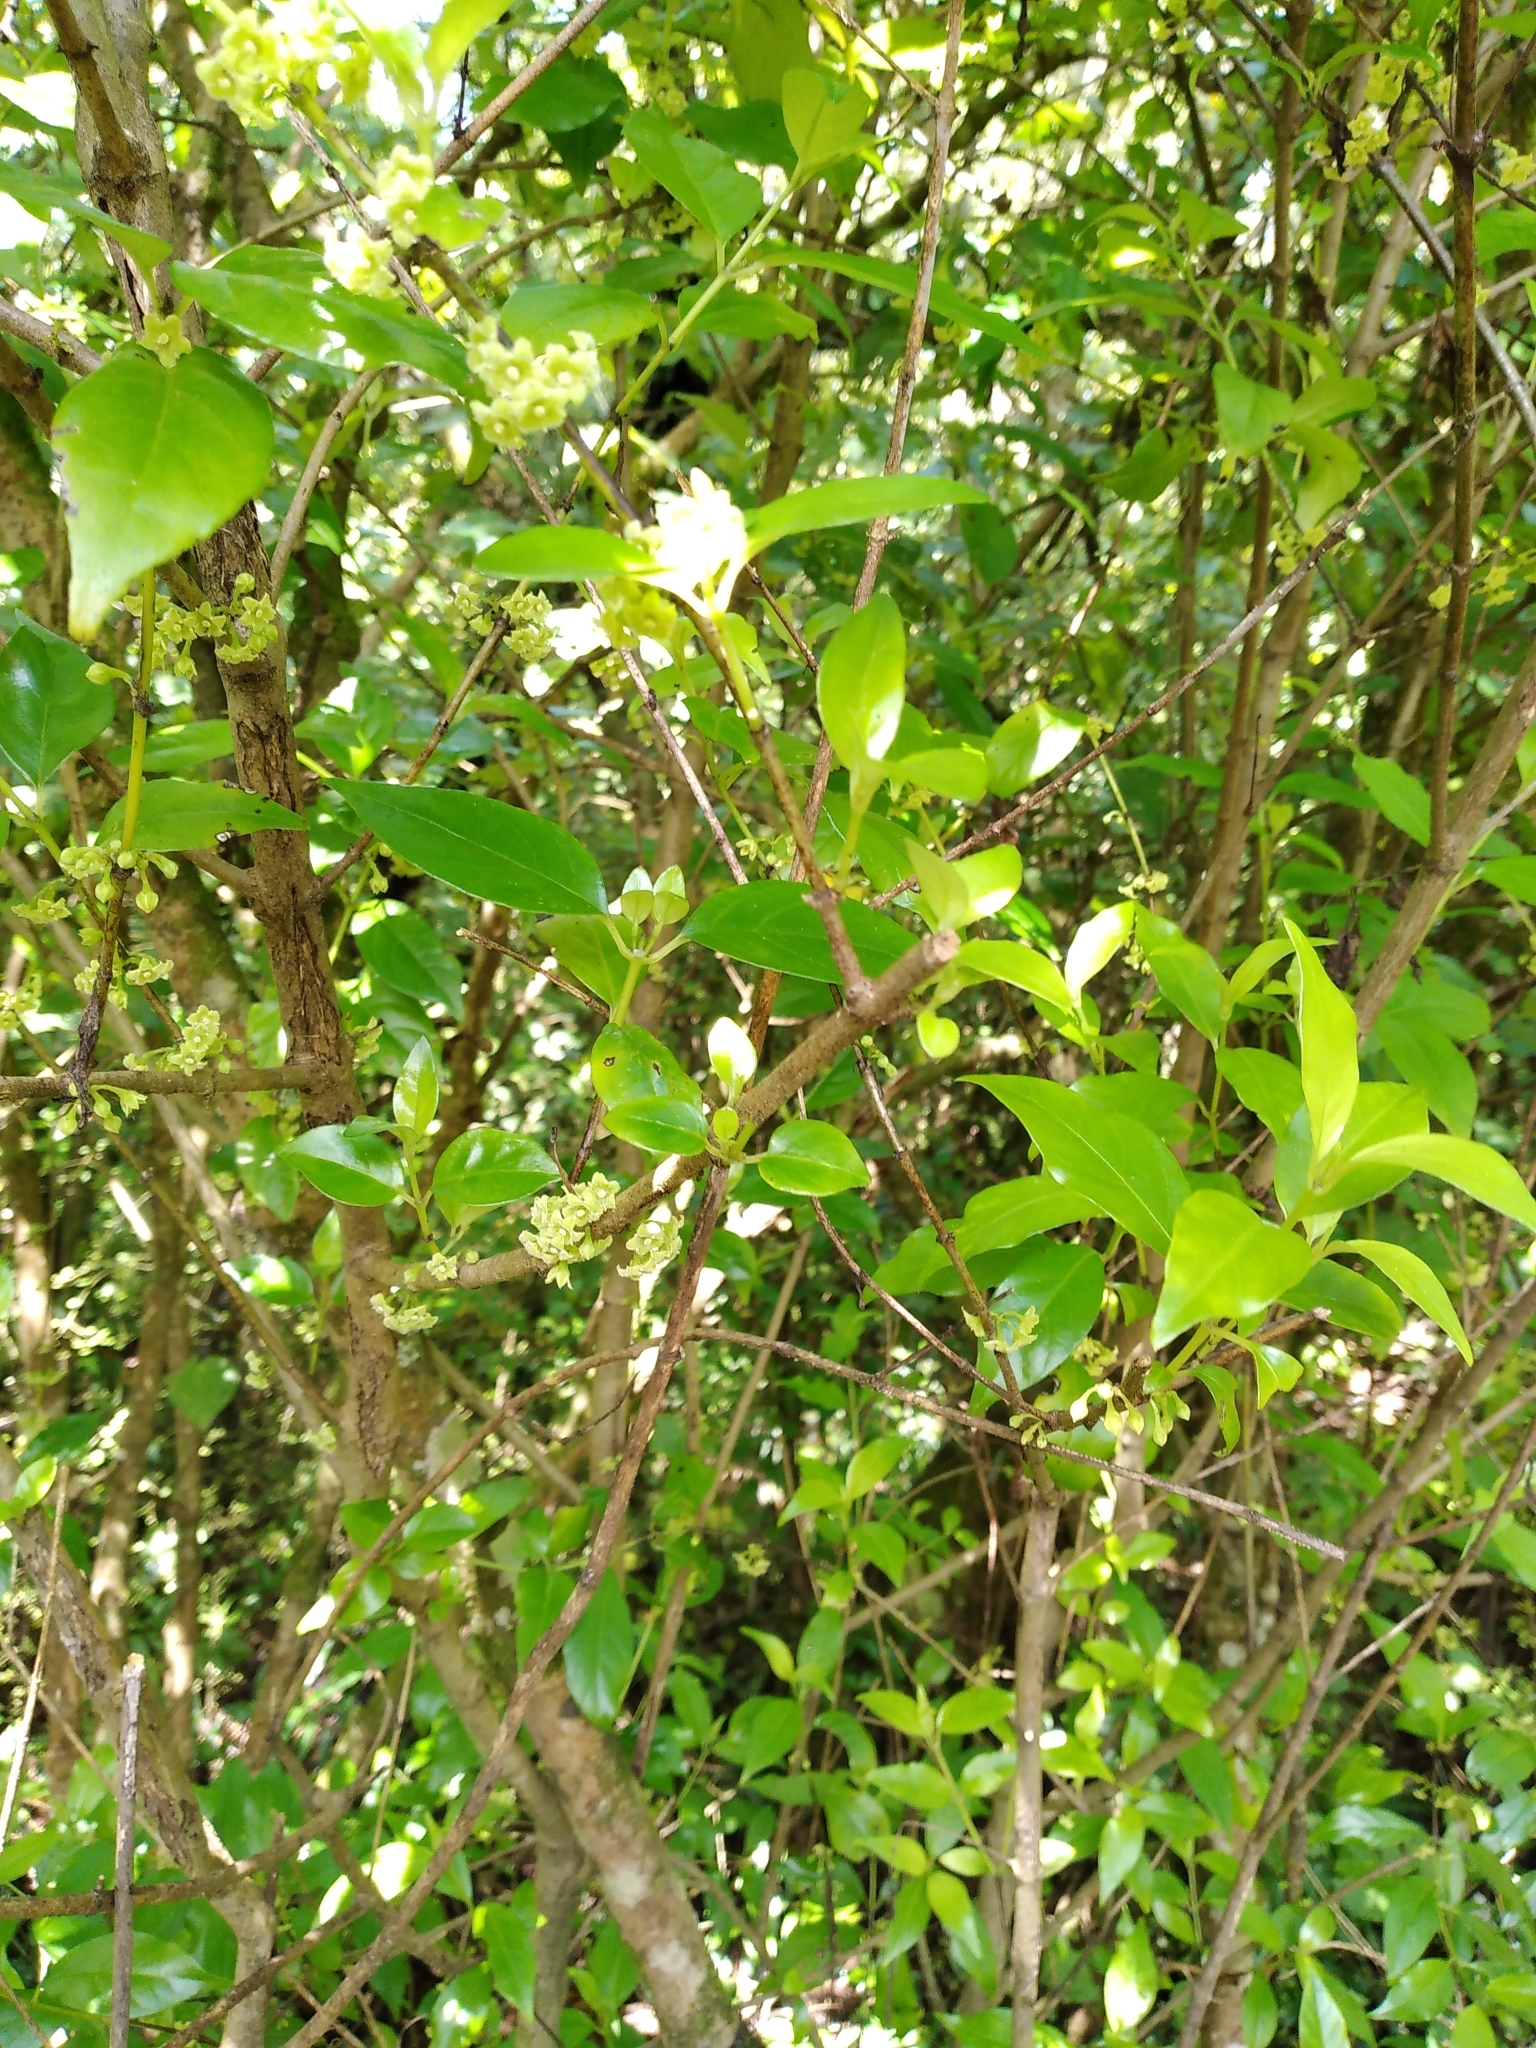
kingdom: Plantae
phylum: Tracheophyta
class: Magnoliopsida
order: Gentianales
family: Loganiaceae
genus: Geniostoma
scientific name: Geniostoma ligustrifolium
